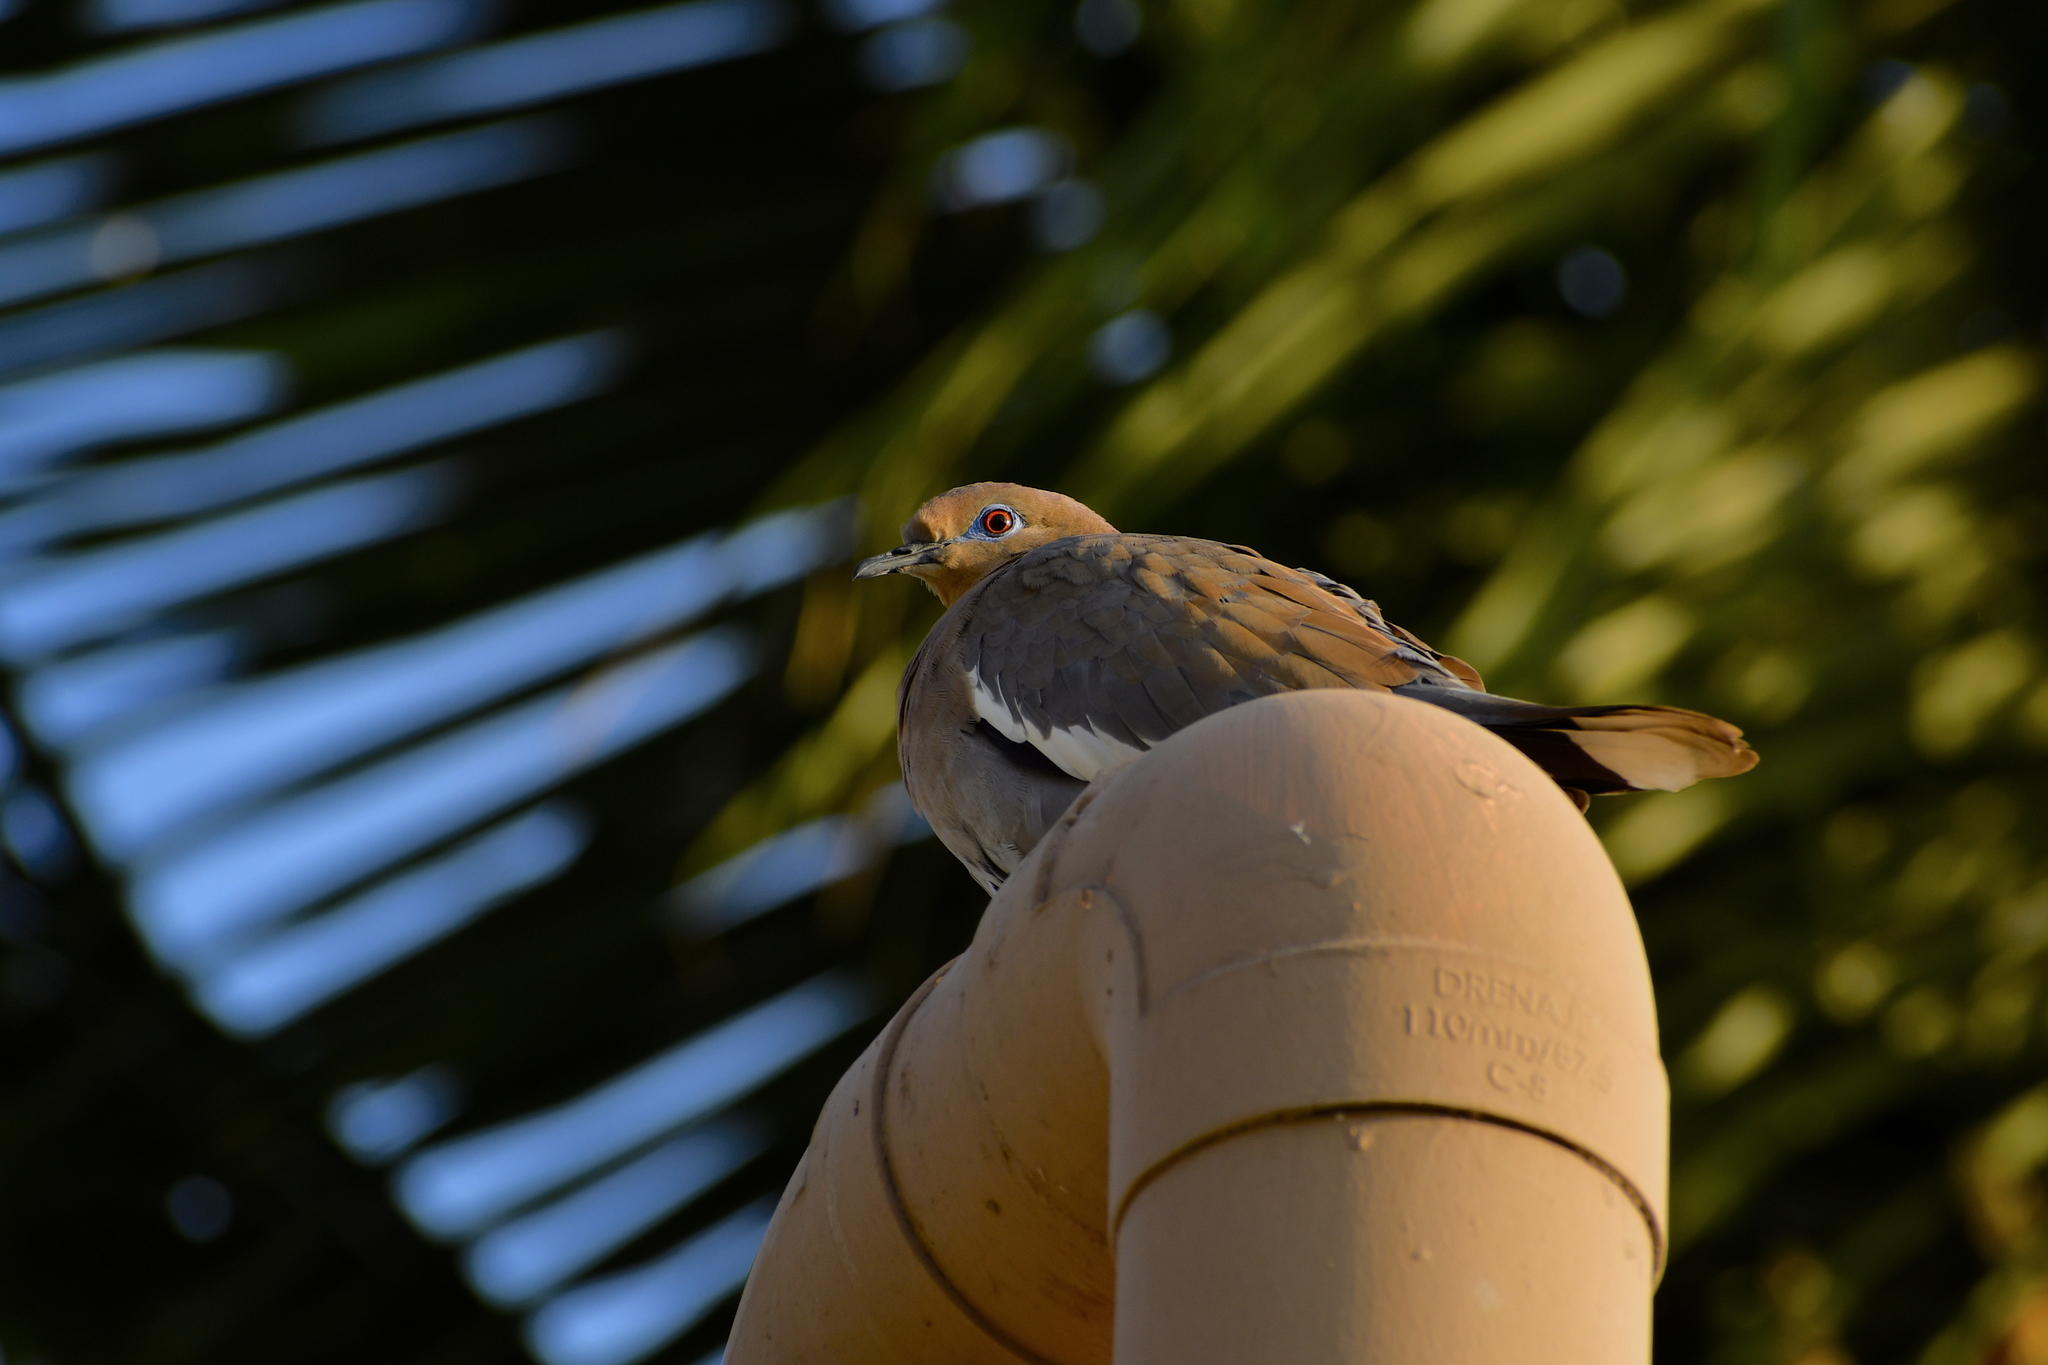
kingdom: Animalia
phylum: Chordata
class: Aves
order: Columbiformes
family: Columbidae
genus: Zenaida
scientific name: Zenaida asiatica
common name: White-winged dove
